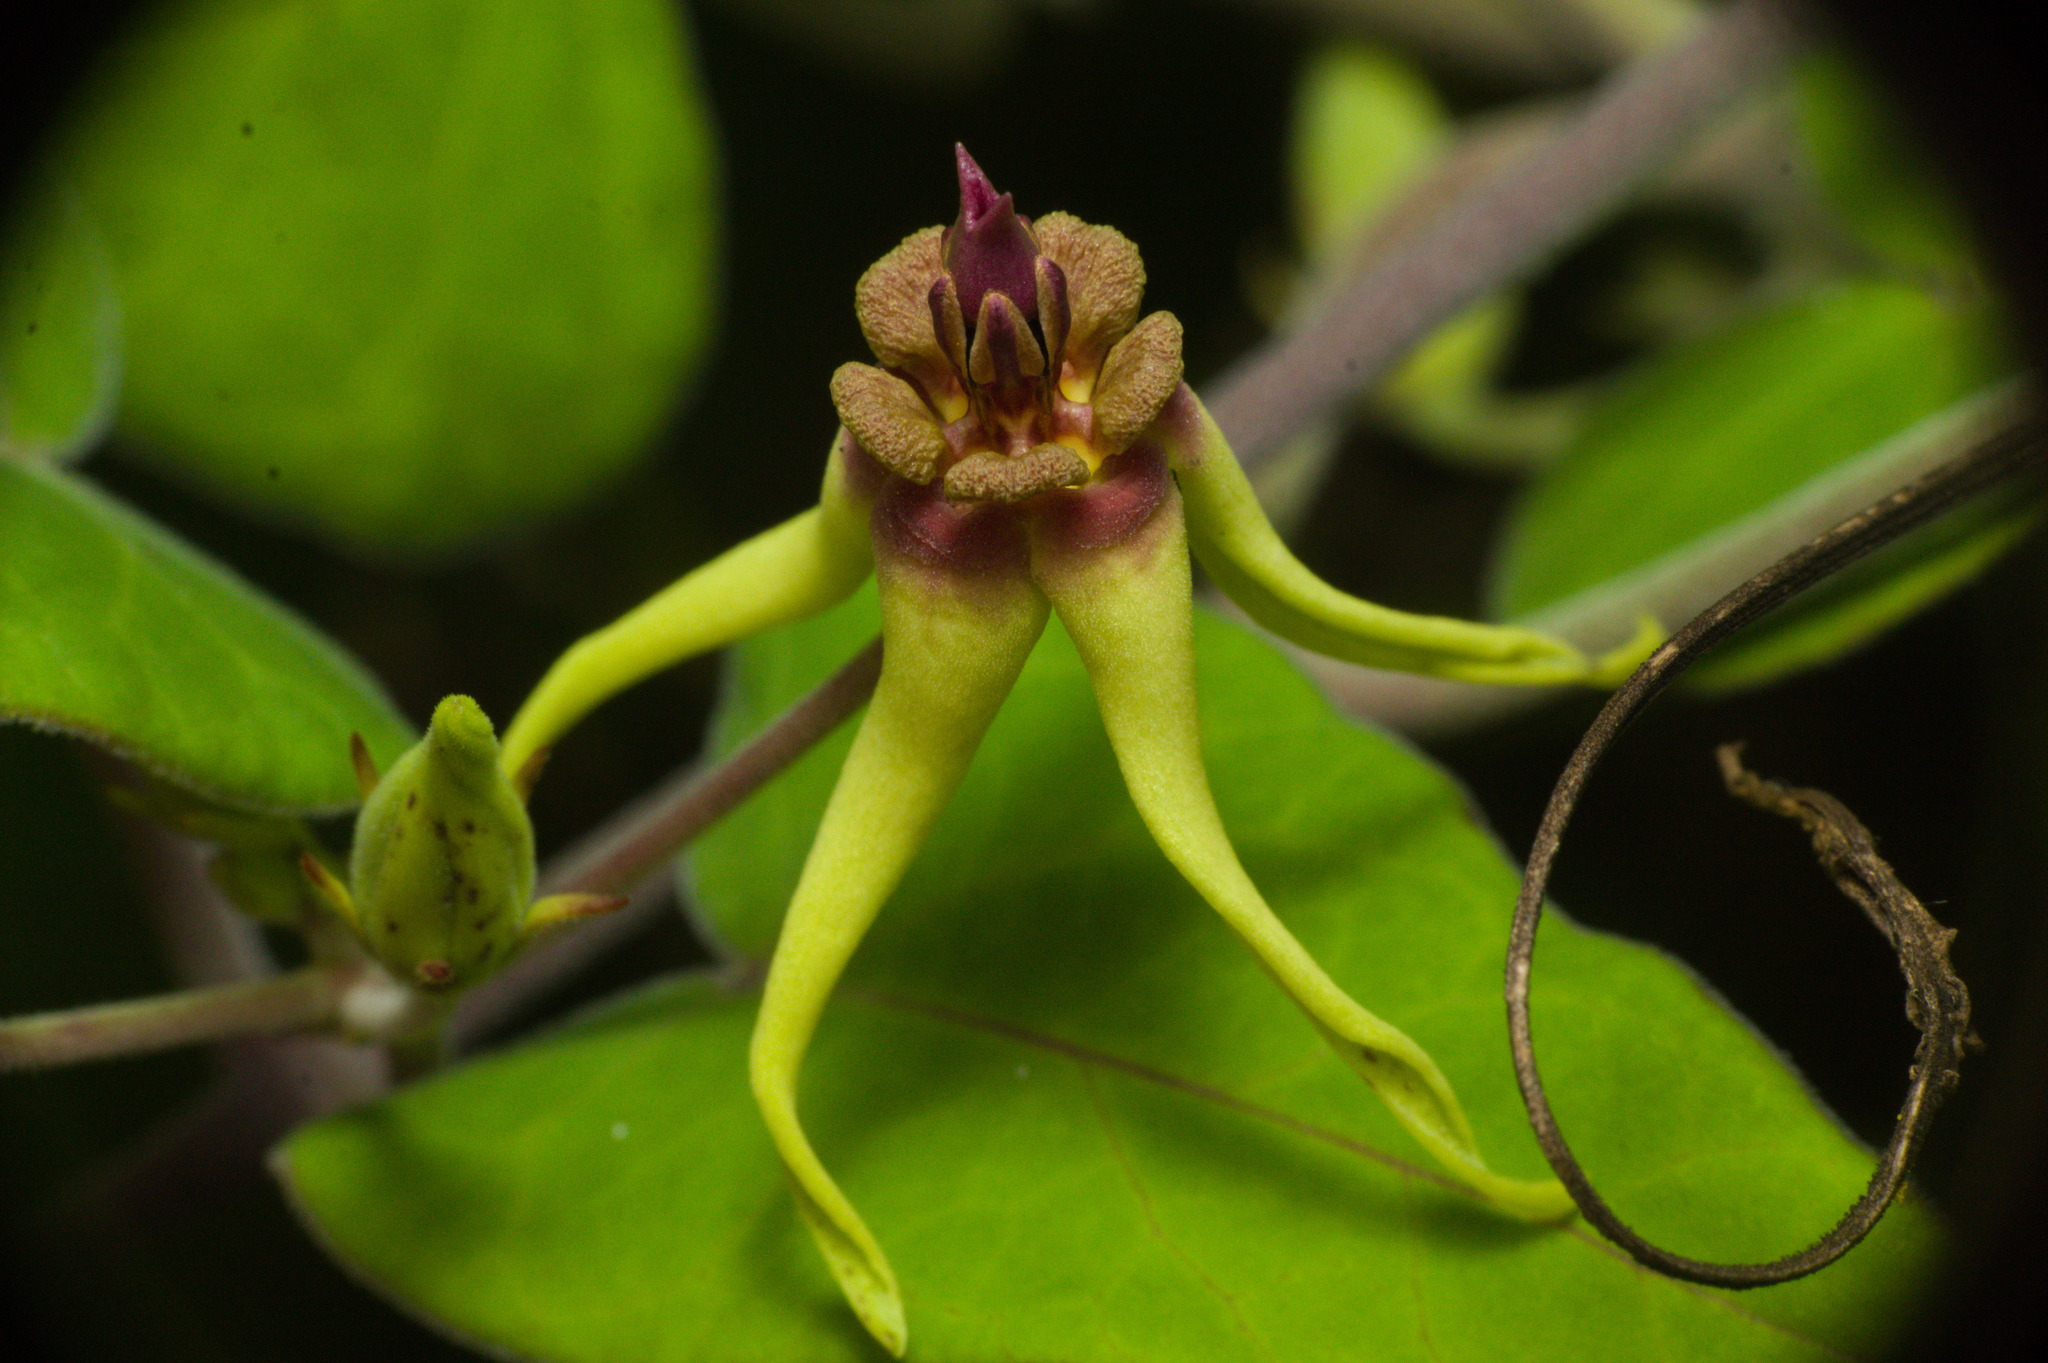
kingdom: Plantae
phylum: Tracheophyta
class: Magnoliopsida
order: Gentianales
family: Apocynaceae
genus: Oxypetalum
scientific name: Oxypetalum banksii
